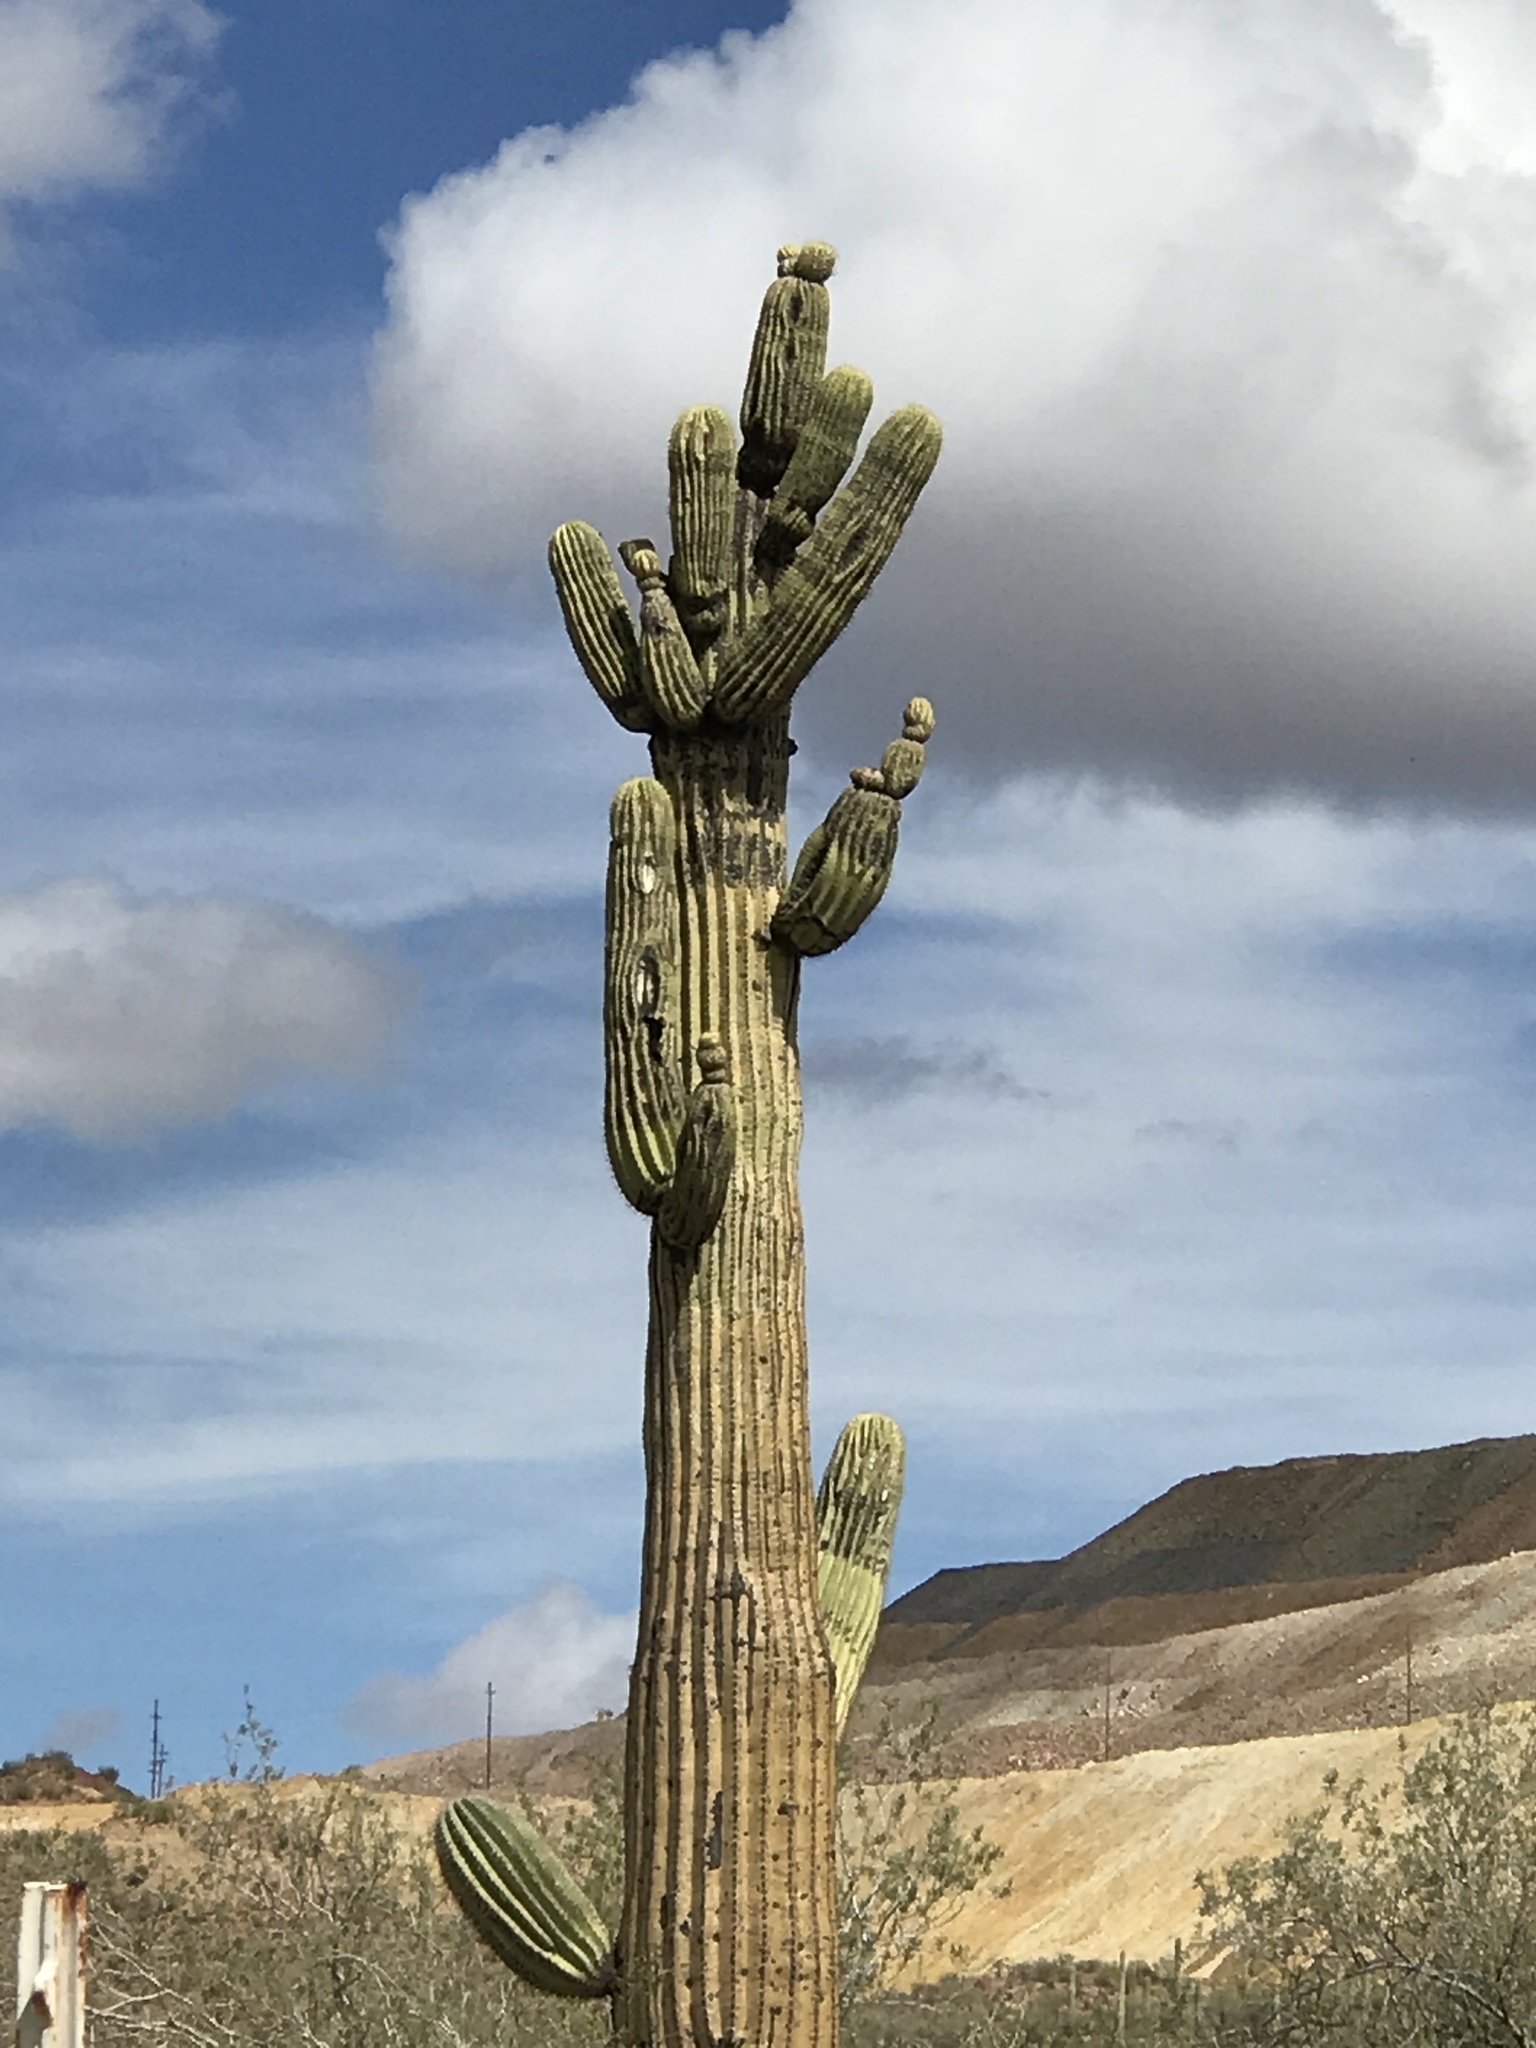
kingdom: Plantae
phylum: Tracheophyta
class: Magnoliopsida
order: Caryophyllales
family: Cactaceae
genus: Carnegiea
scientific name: Carnegiea gigantea
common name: Saguaro
